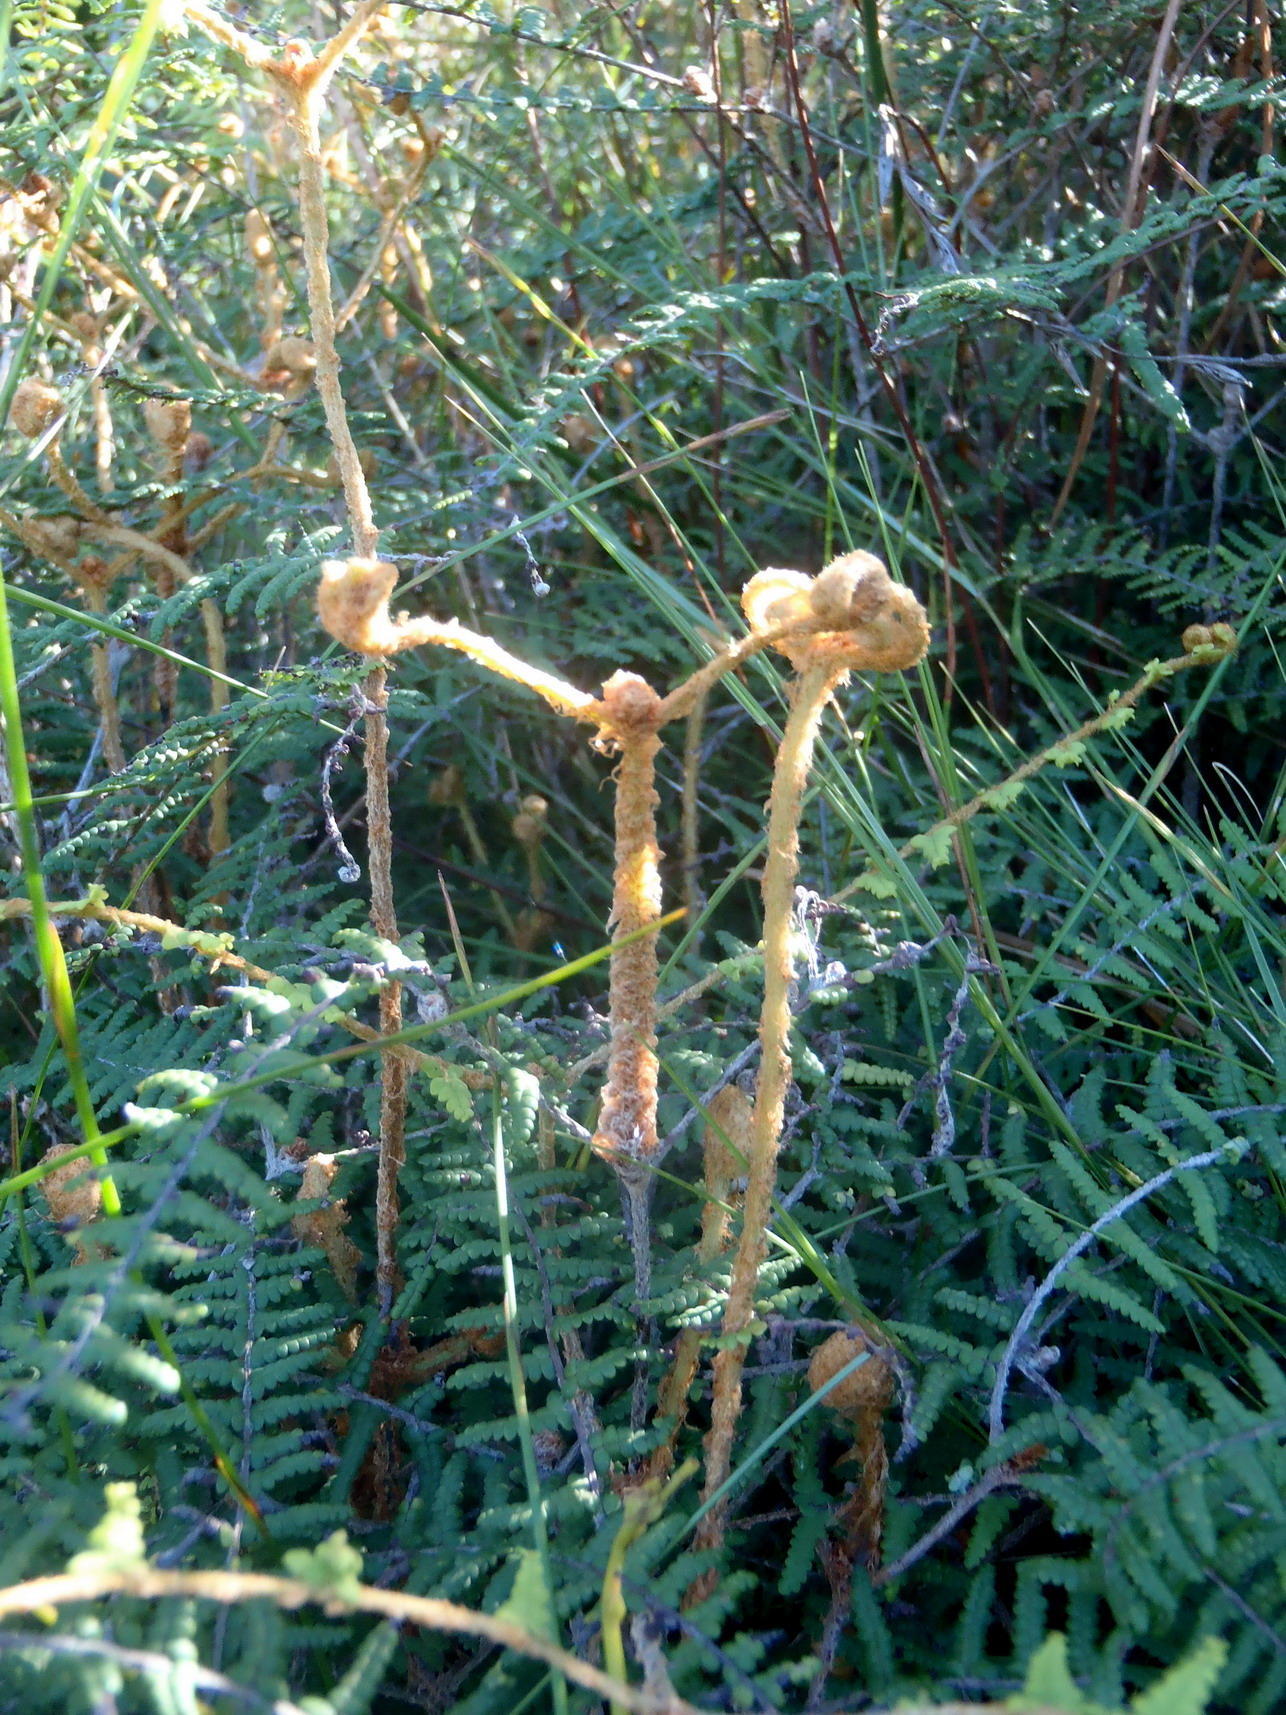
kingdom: Plantae
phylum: Tracheophyta
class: Polypodiopsida
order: Gleicheniales
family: Gleicheniaceae
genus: Gleichenia
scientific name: Gleichenia polypodioides
